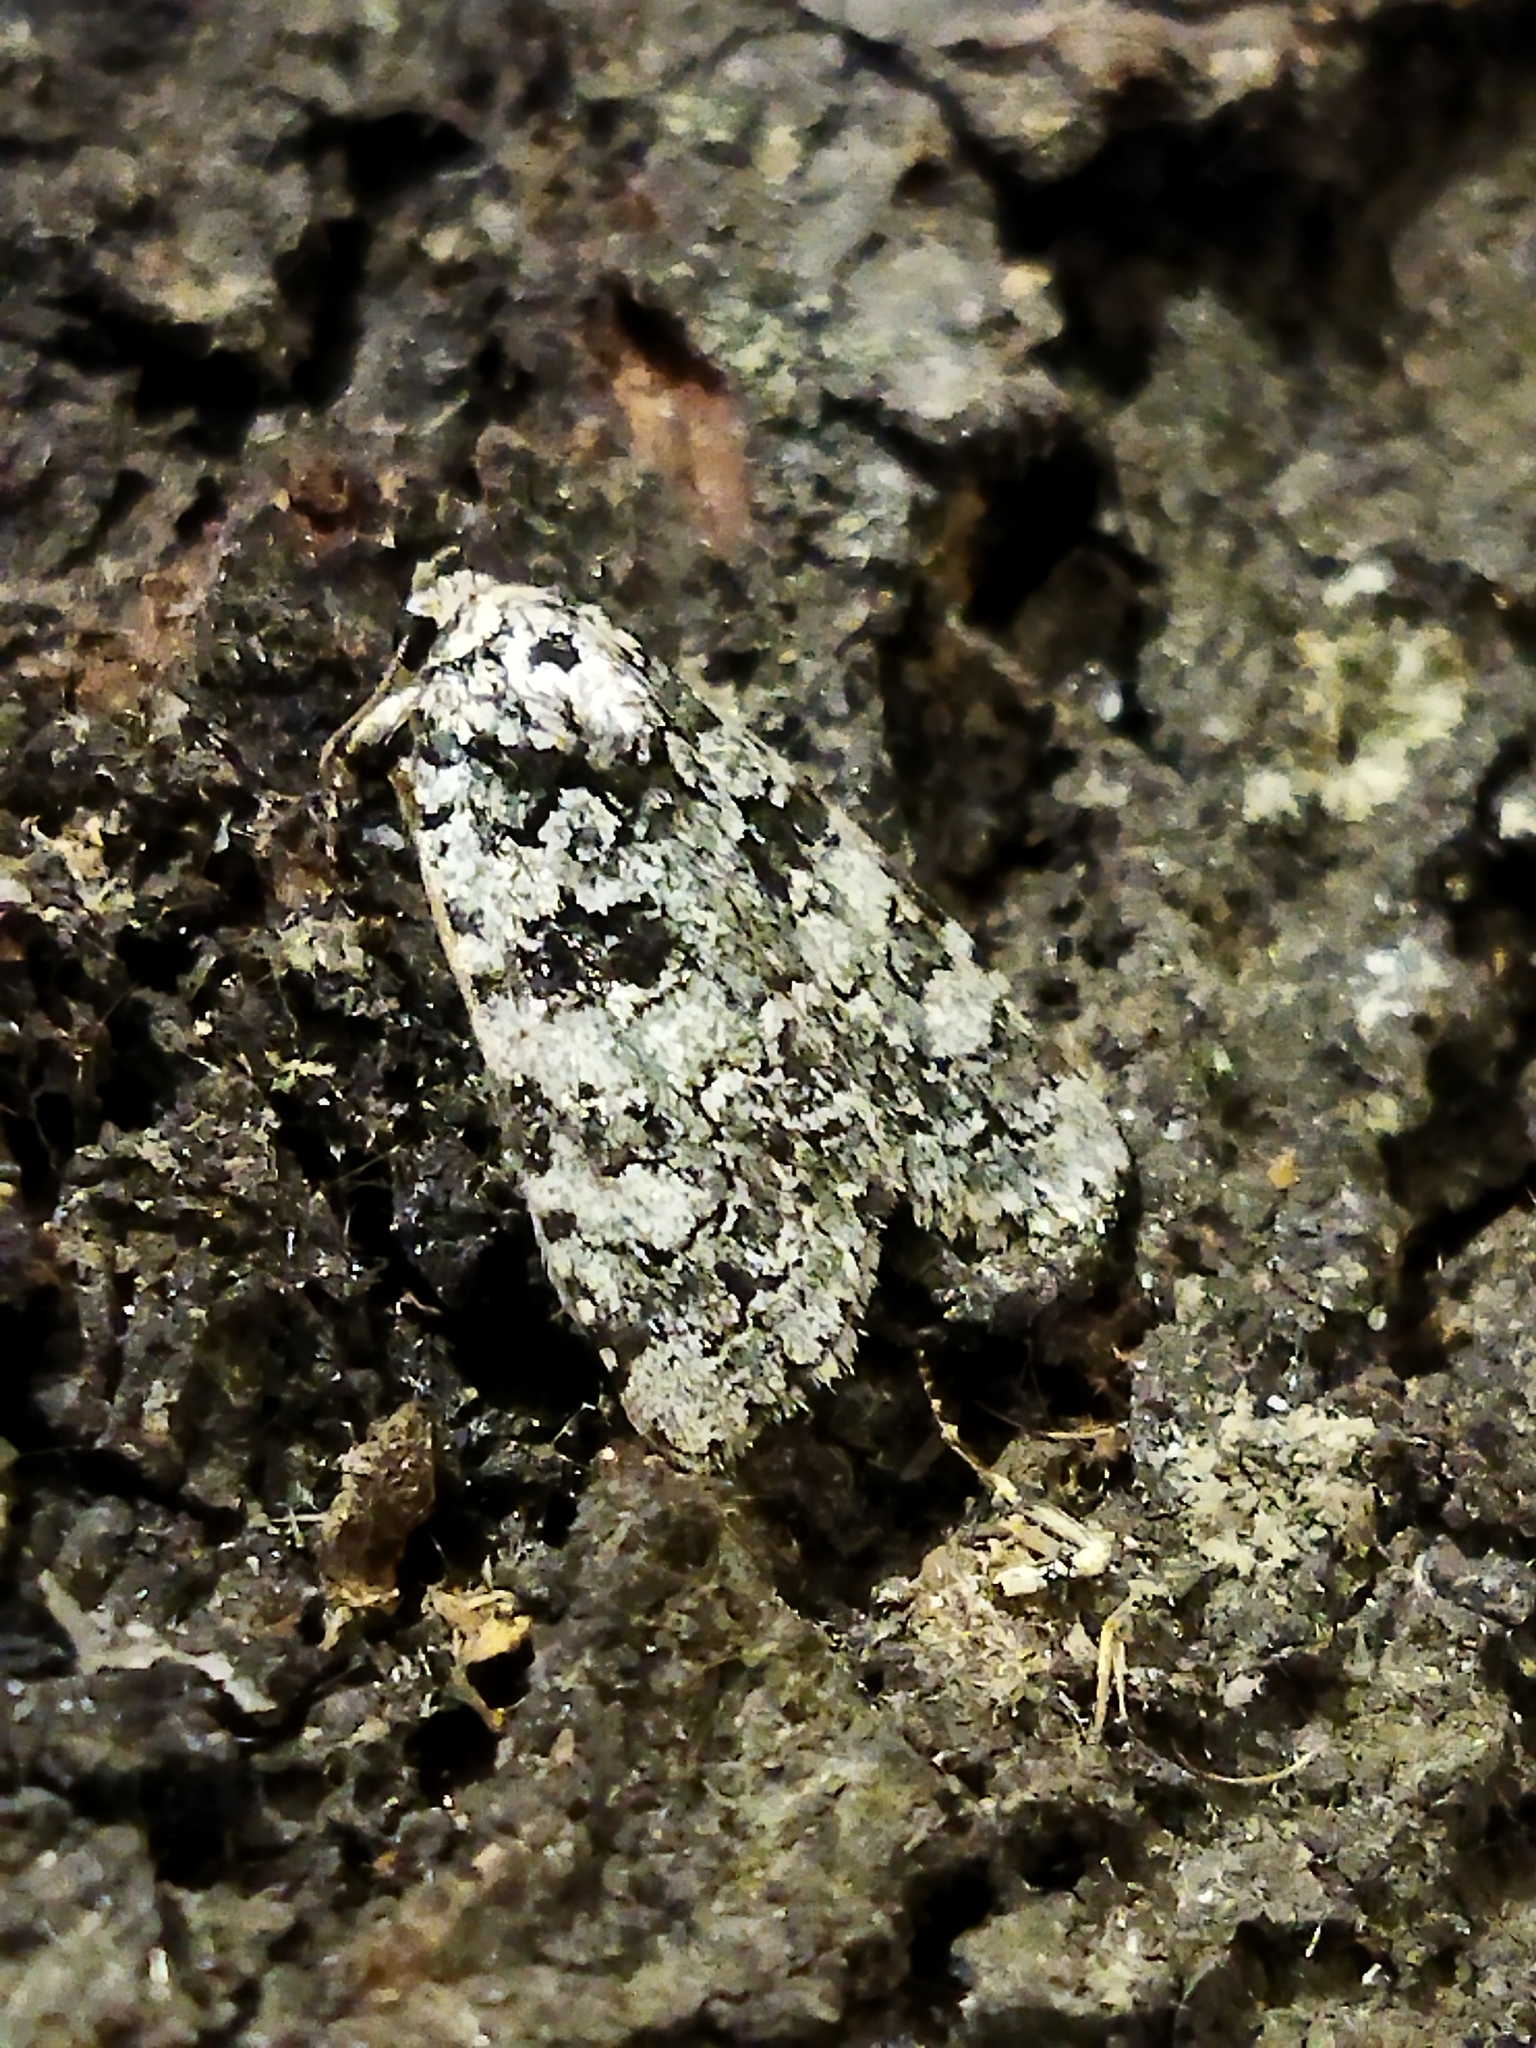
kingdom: Plantae
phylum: Chlorophyta
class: Ulvophyceae
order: Bryopsidales
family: Bryopsidaceae
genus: Bryopsis
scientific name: Bryopsis
